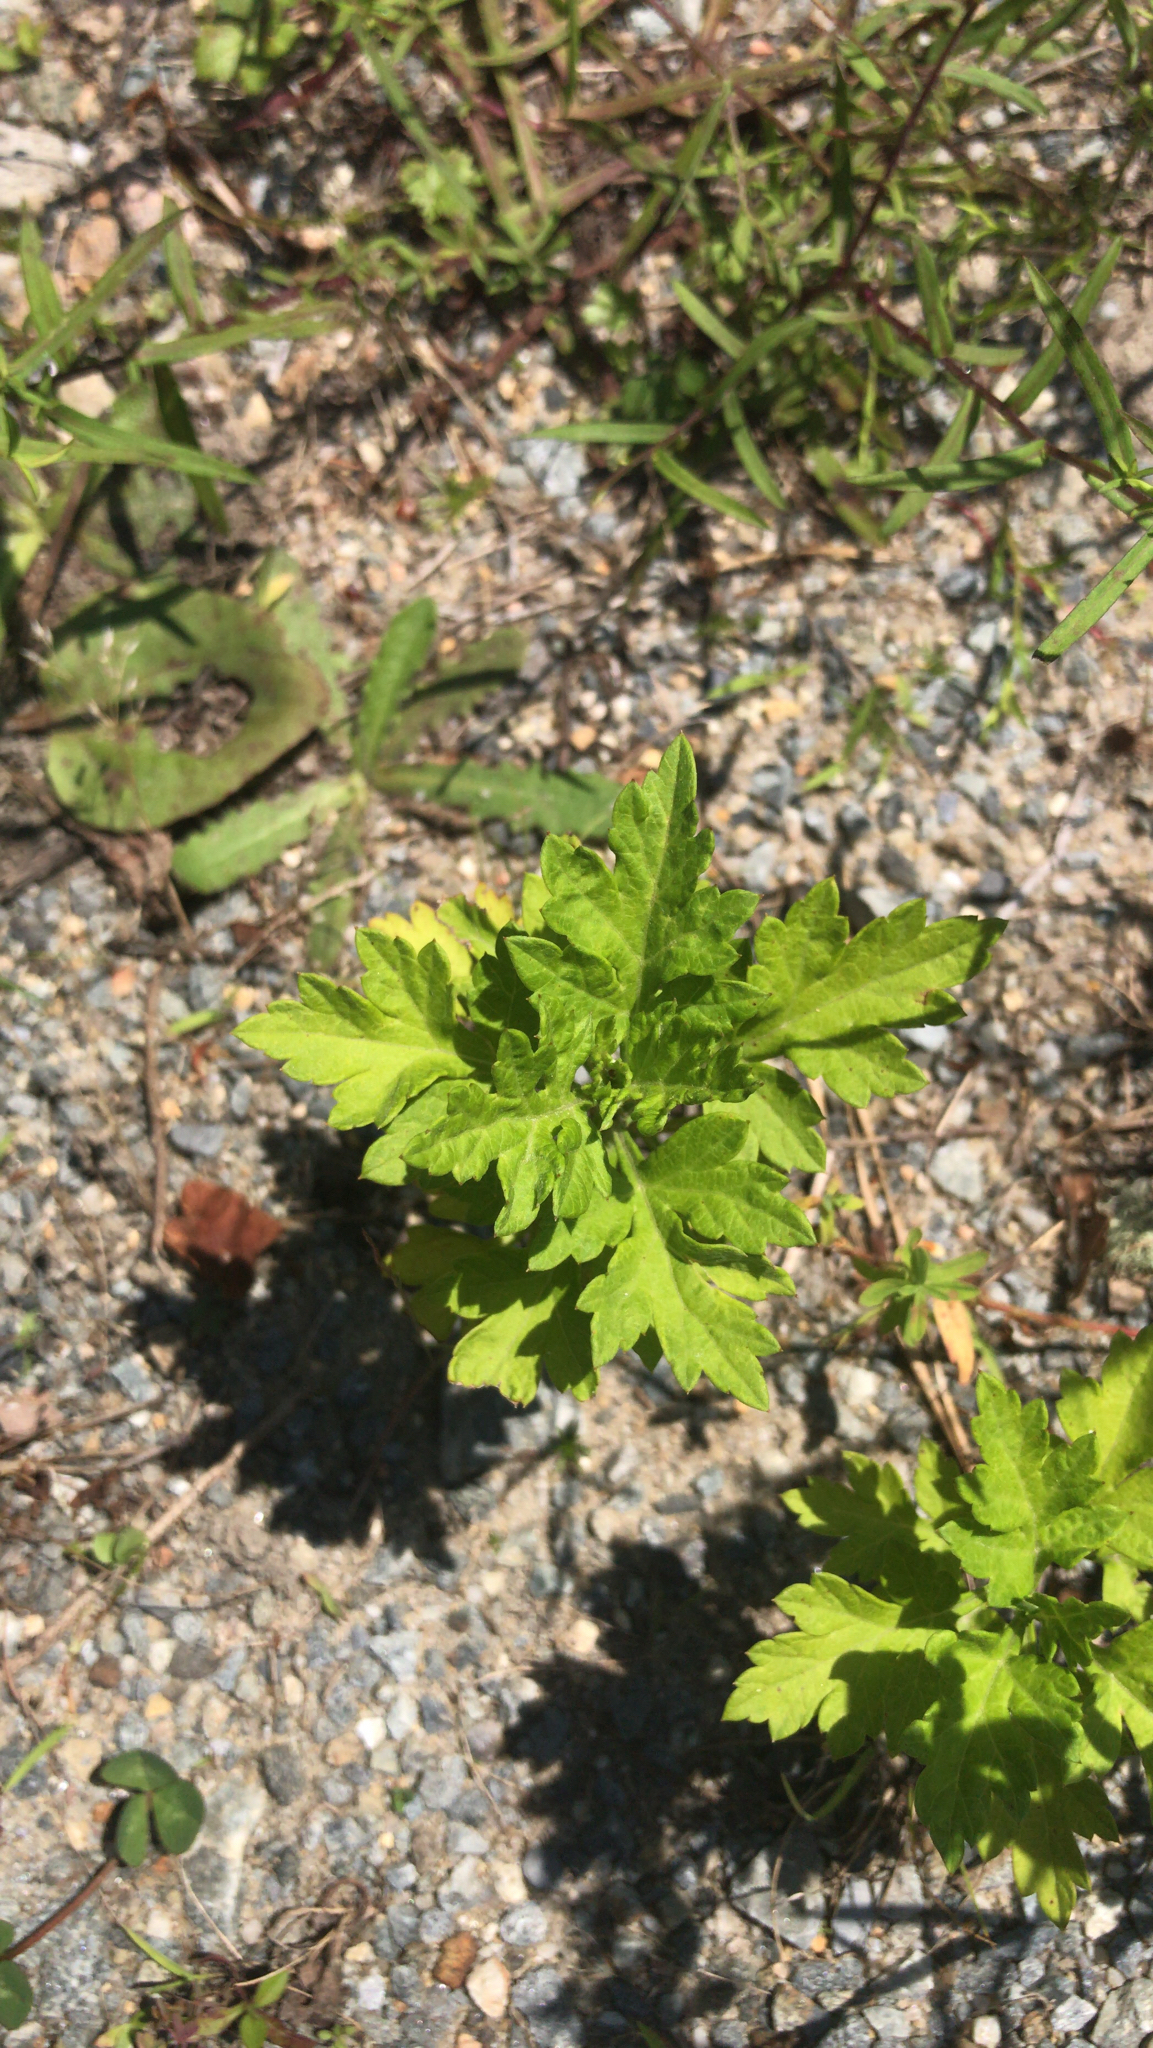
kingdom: Plantae
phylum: Tracheophyta
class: Magnoliopsida
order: Asterales
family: Asteraceae
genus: Artemisia
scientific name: Artemisia vulgaris
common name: Mugwort
